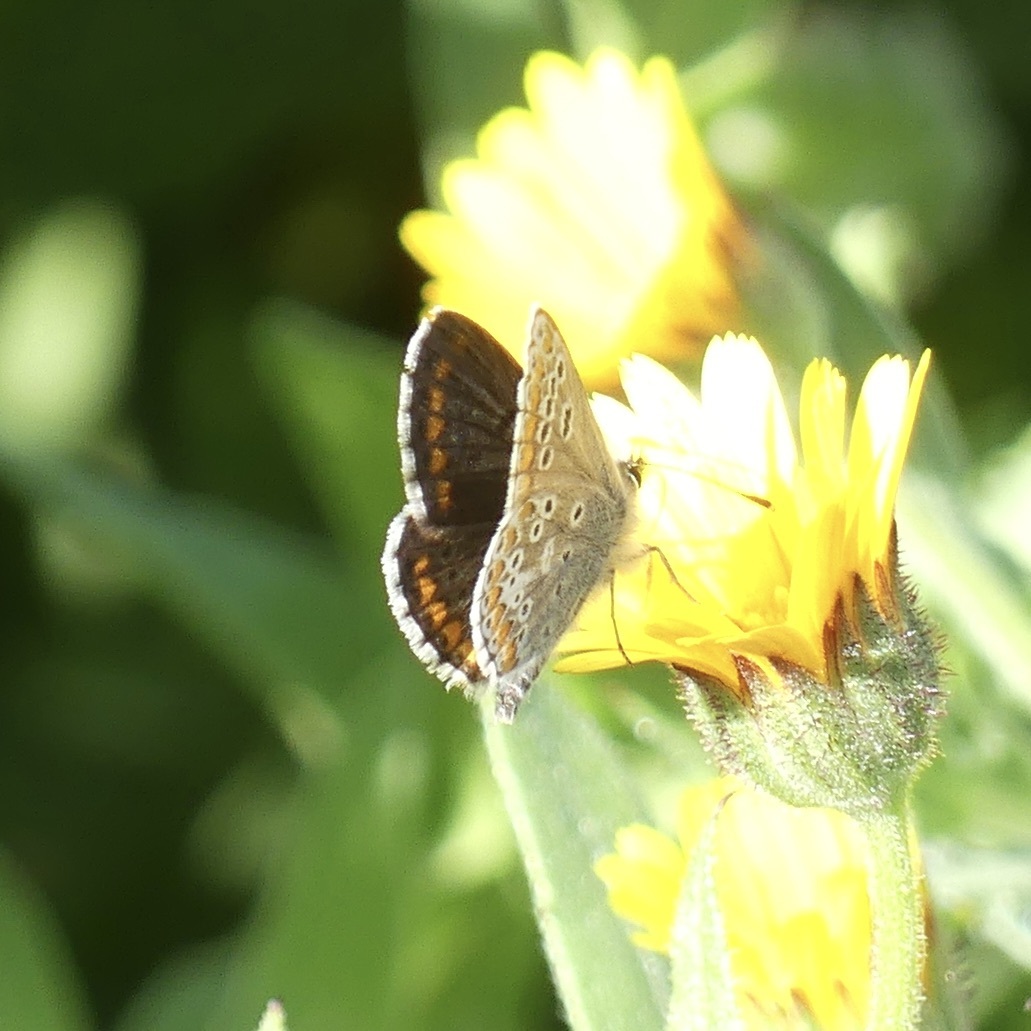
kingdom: Animalia
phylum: Arthropoda
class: Insecta
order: Lepidoptera
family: Lycaenidae
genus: Aricia
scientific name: Aricia cramera
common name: Eschscholtz´s brown  argus
